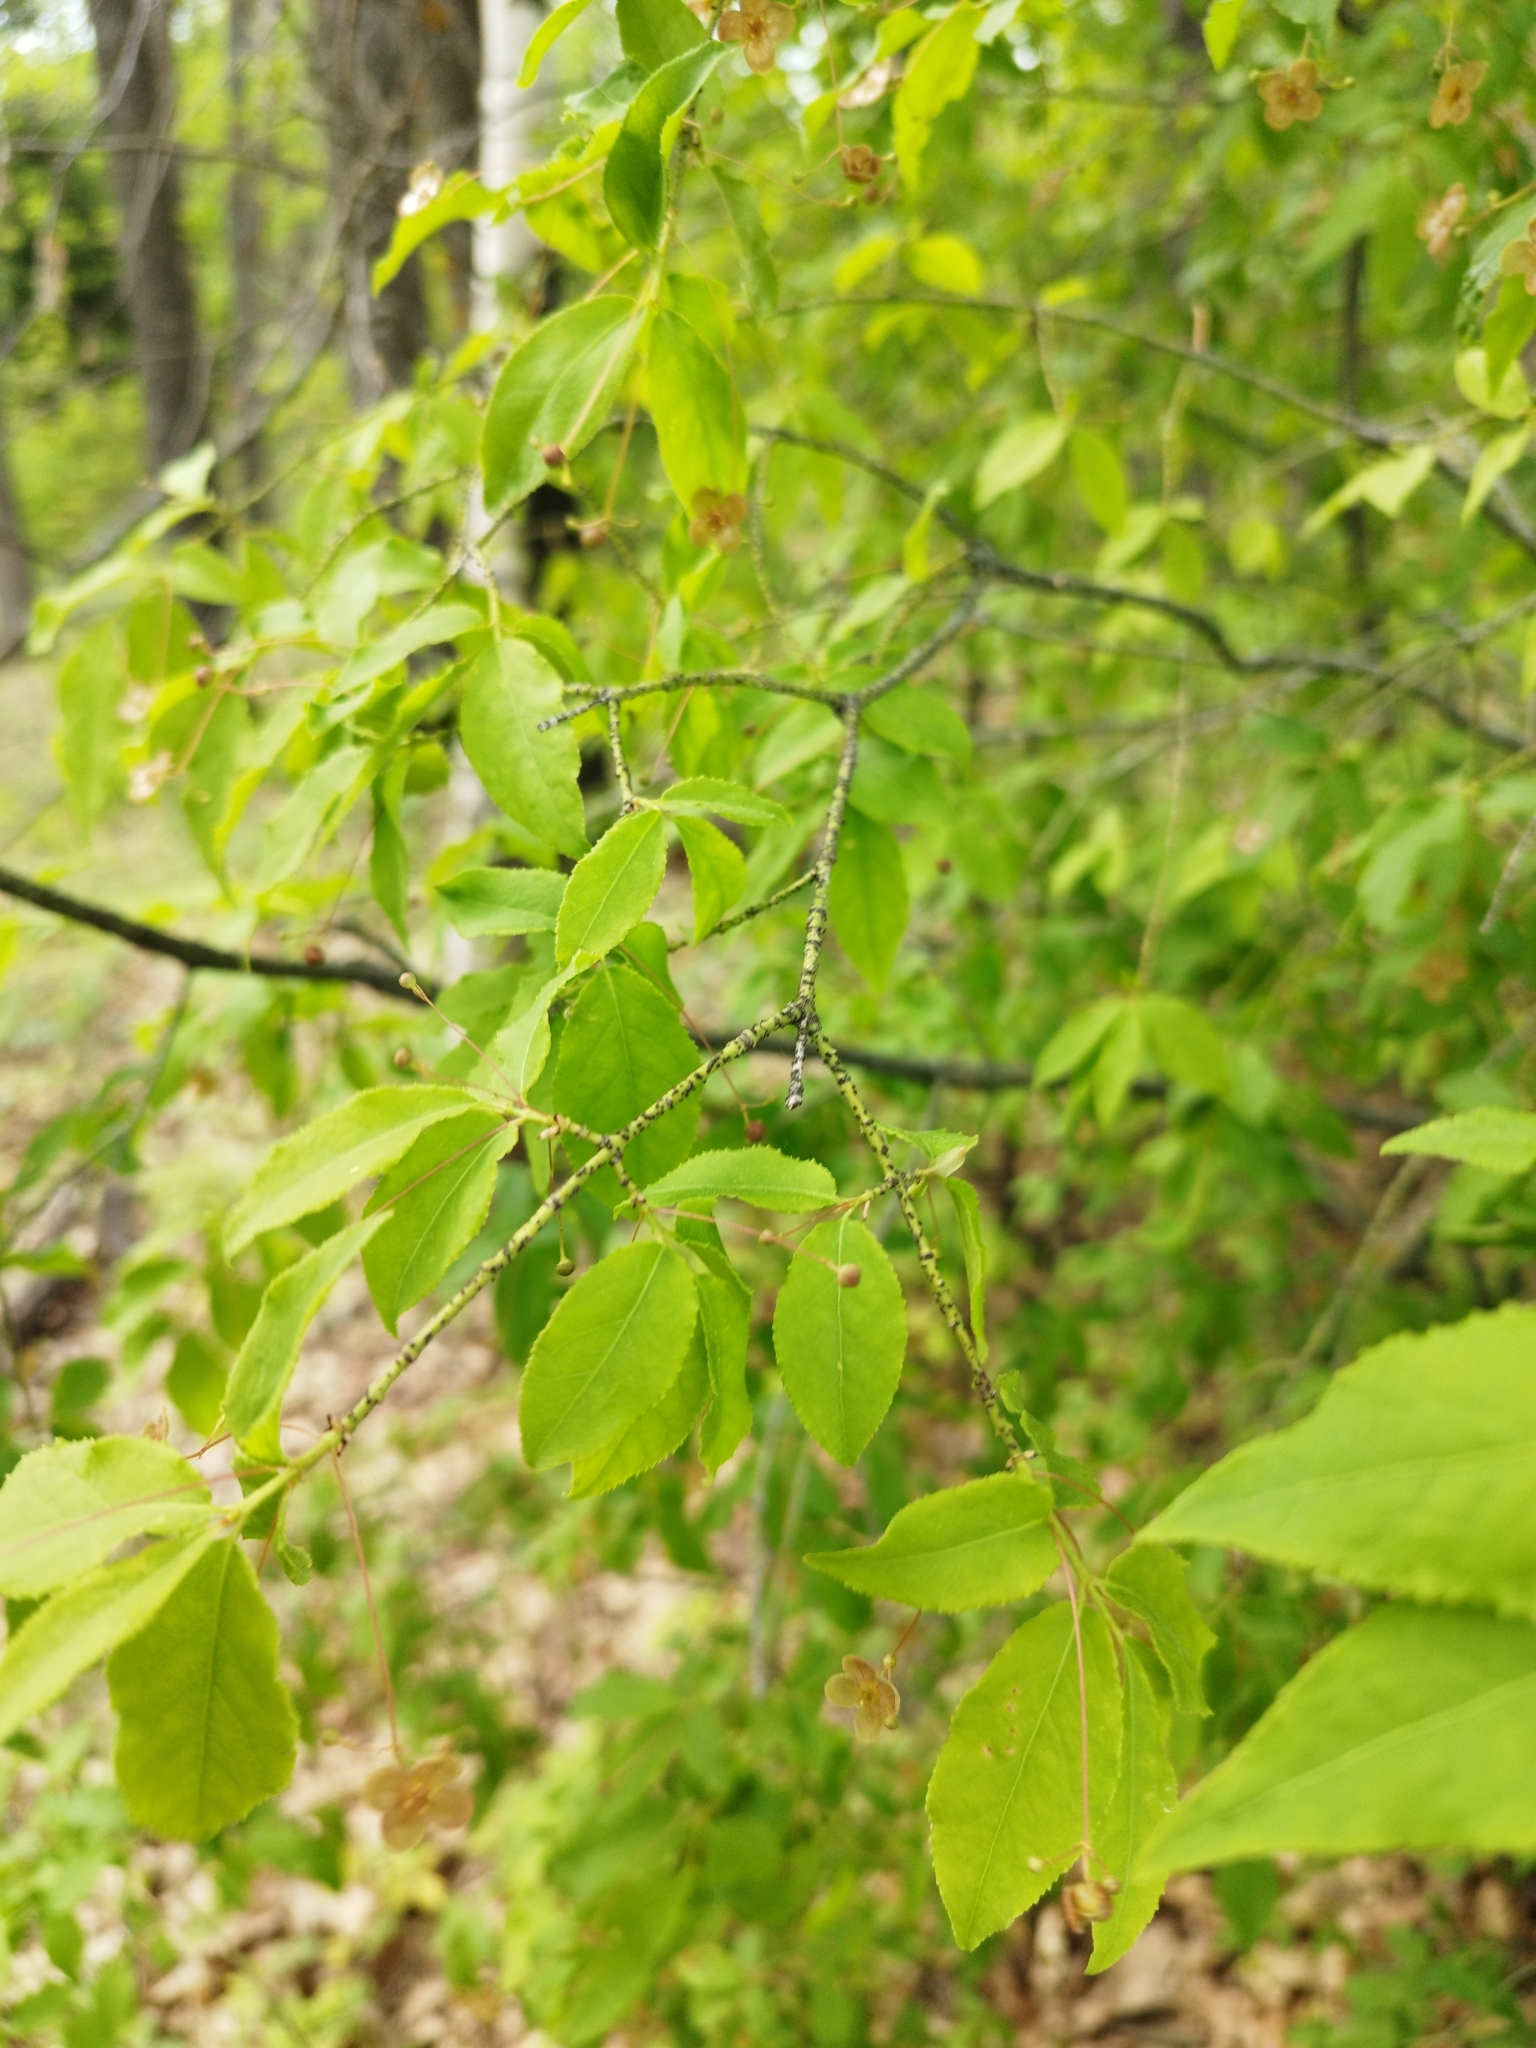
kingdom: Plantae
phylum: Tracheophyta
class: Magnoliopsida
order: Celastrales
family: Celastraceae
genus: Euonymus
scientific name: Euonymus verrucosus
